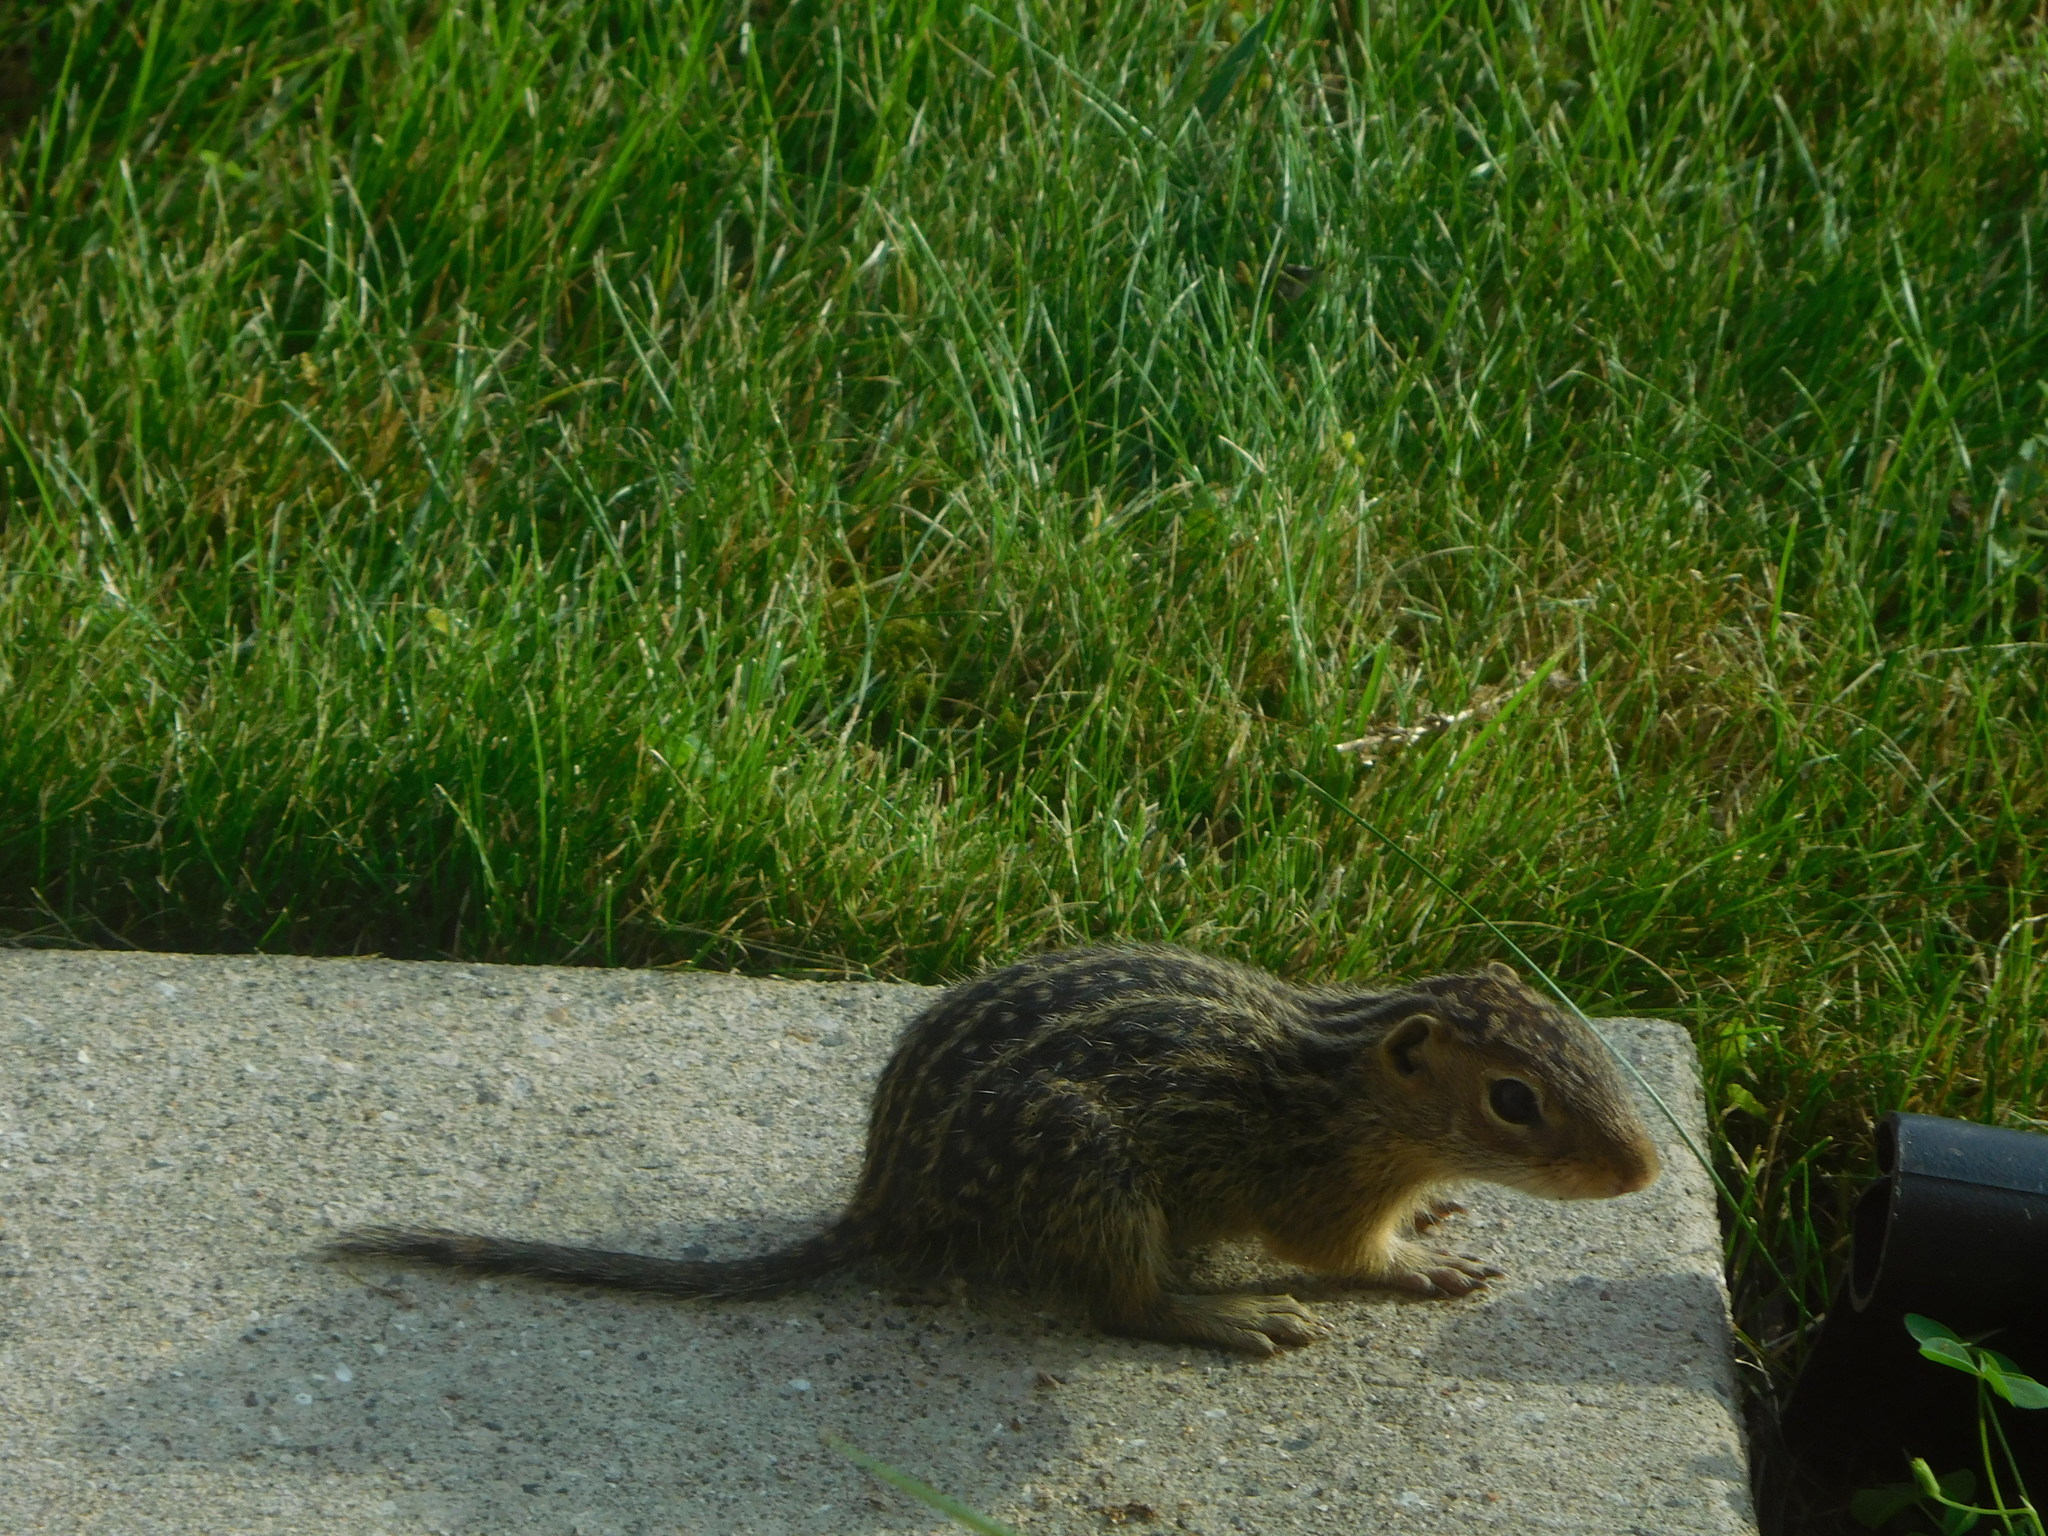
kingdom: Animalia
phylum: Chordata
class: Mammalia
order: Rodentia
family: Sciuridae
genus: Ictidomys
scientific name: Ictidomys tridecemlineatus
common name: Thirteen-lined ground squirrel
